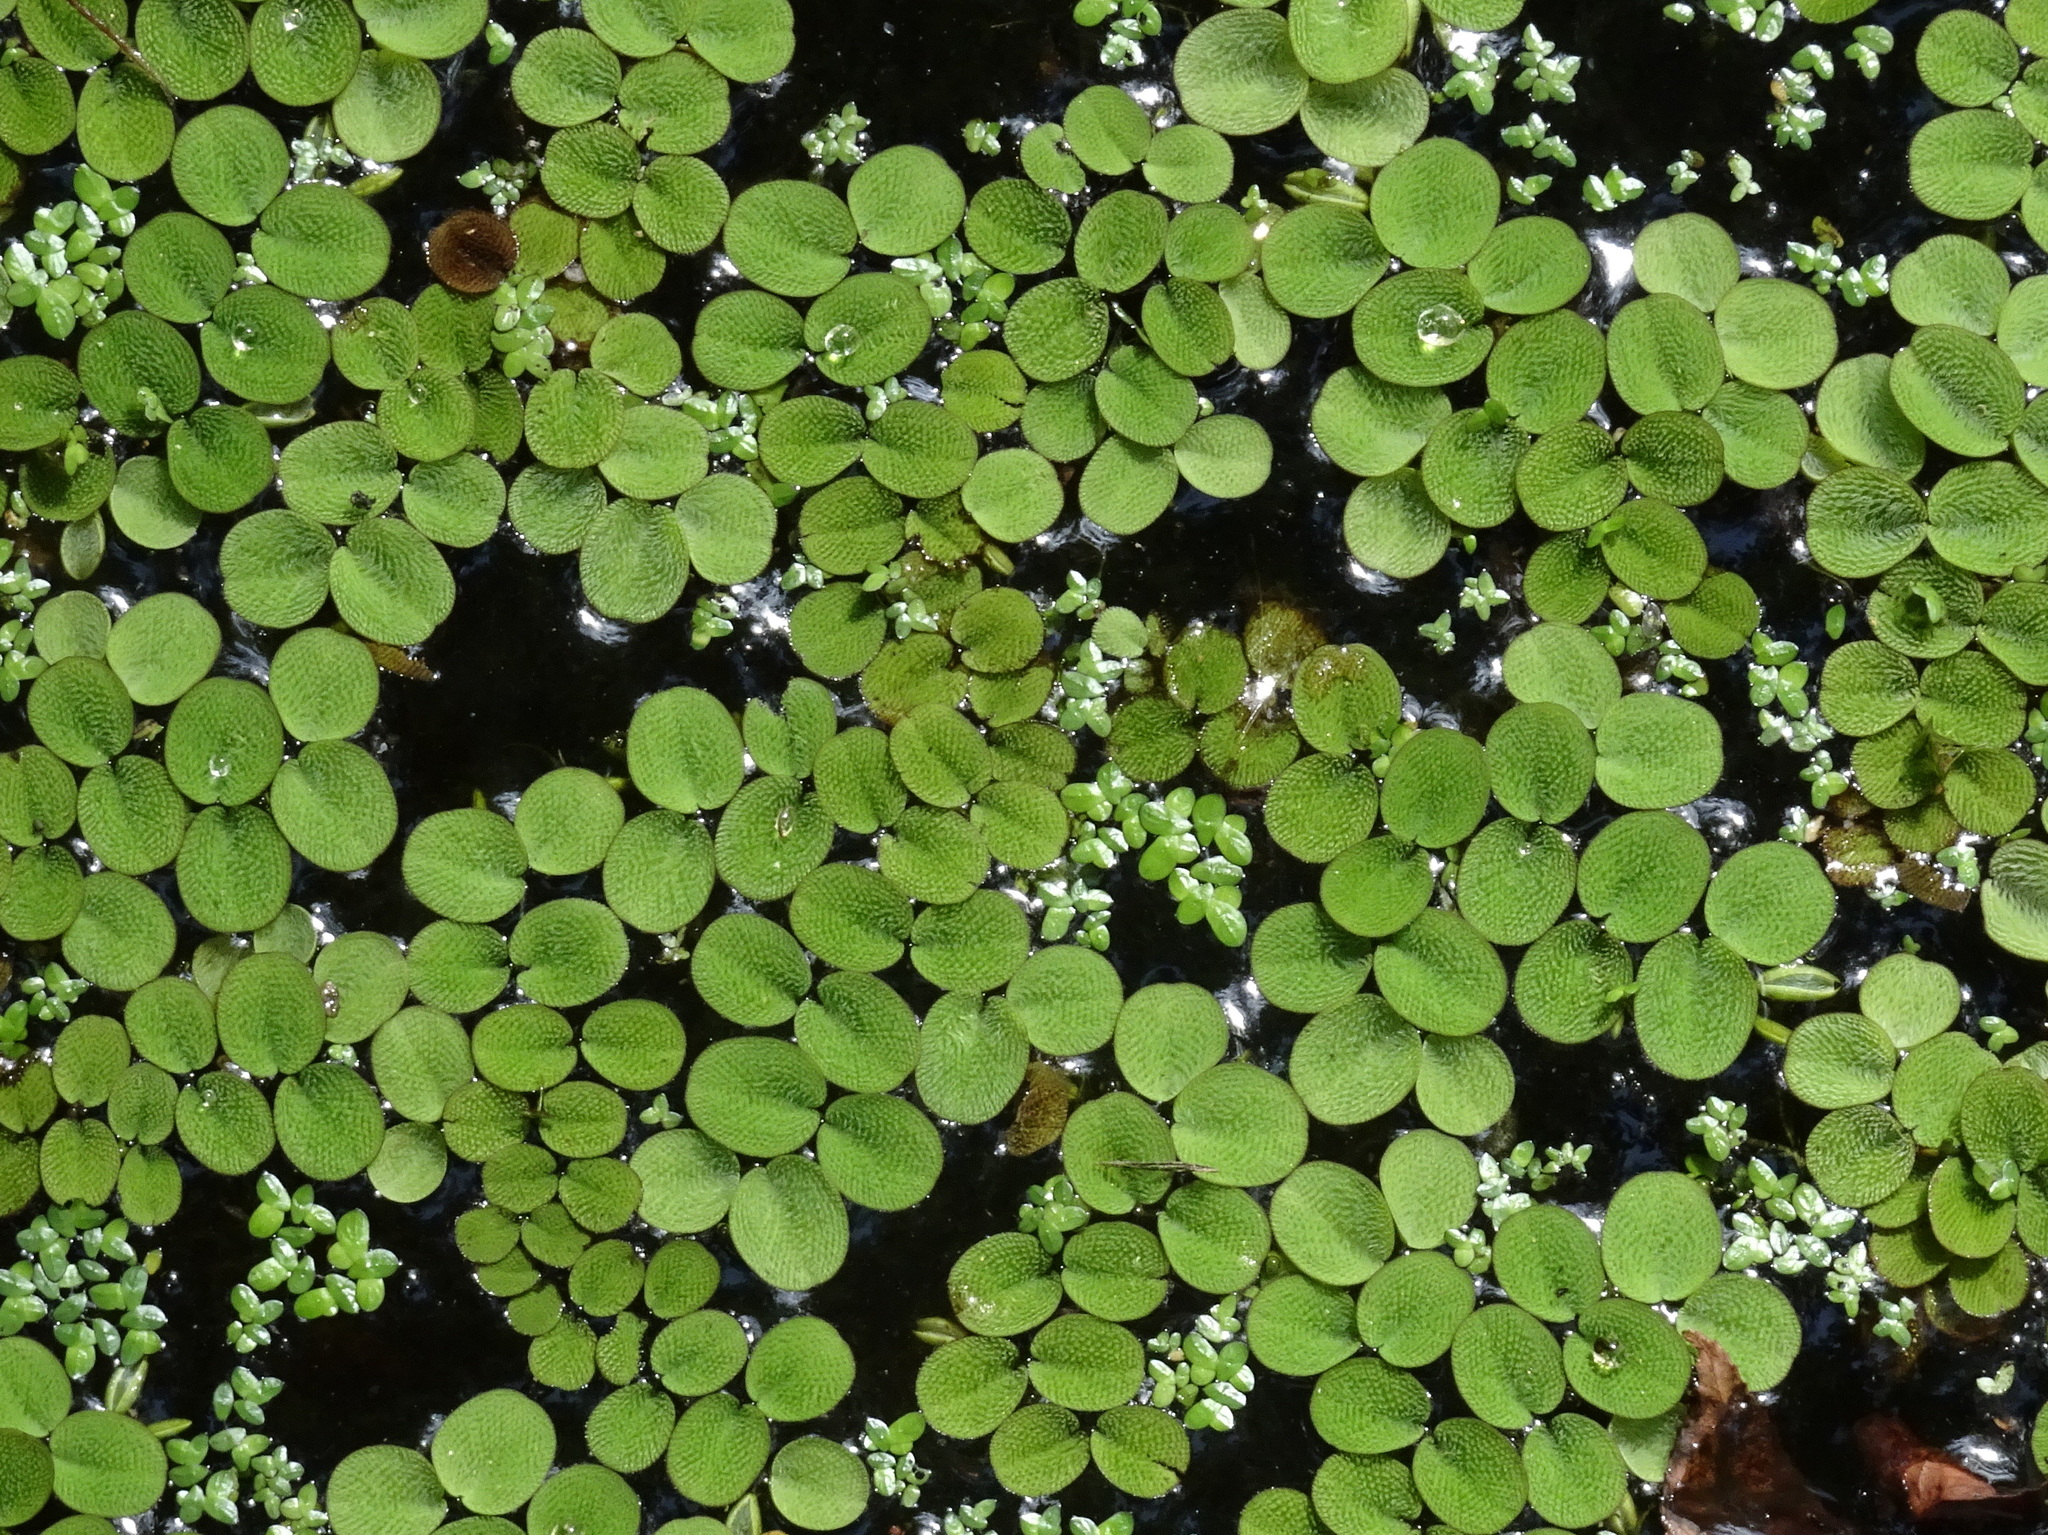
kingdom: Plantae
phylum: Tracheophyta
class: Polypodiopsida
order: Salviniales
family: Salviniaceae
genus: Salvinia
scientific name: Salvinia minima
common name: Water spangles
